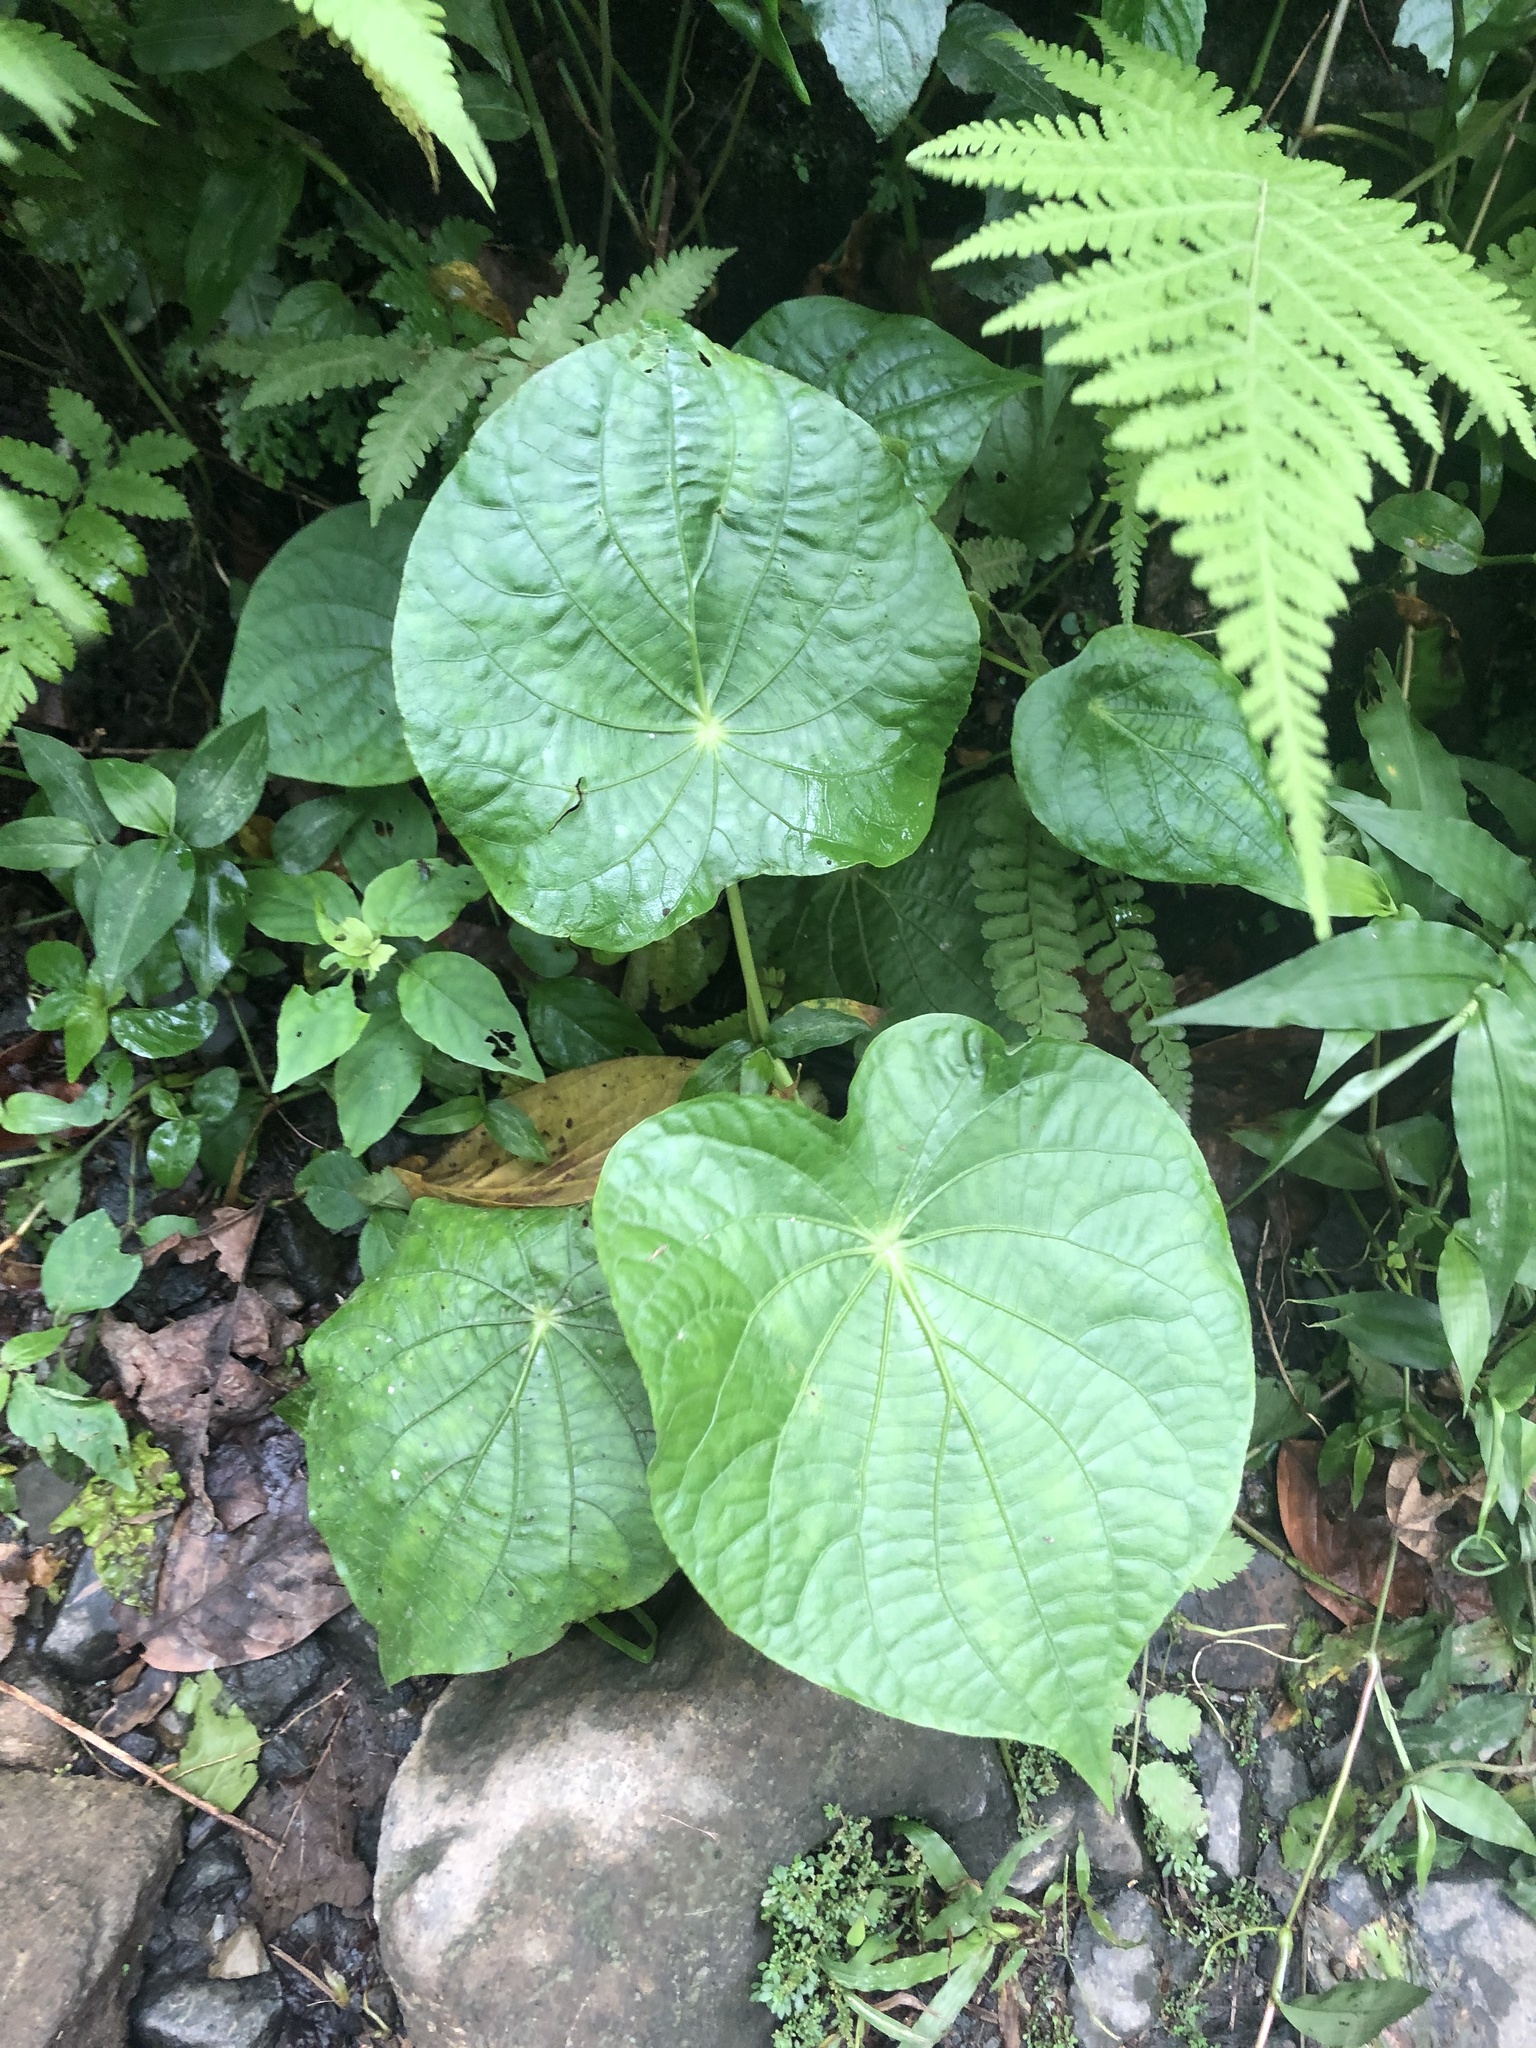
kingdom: Plantae
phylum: Tracheophyta
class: Magnoliopsida
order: Piperales
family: Piperaceae
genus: Piper
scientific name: Piper peltatum
